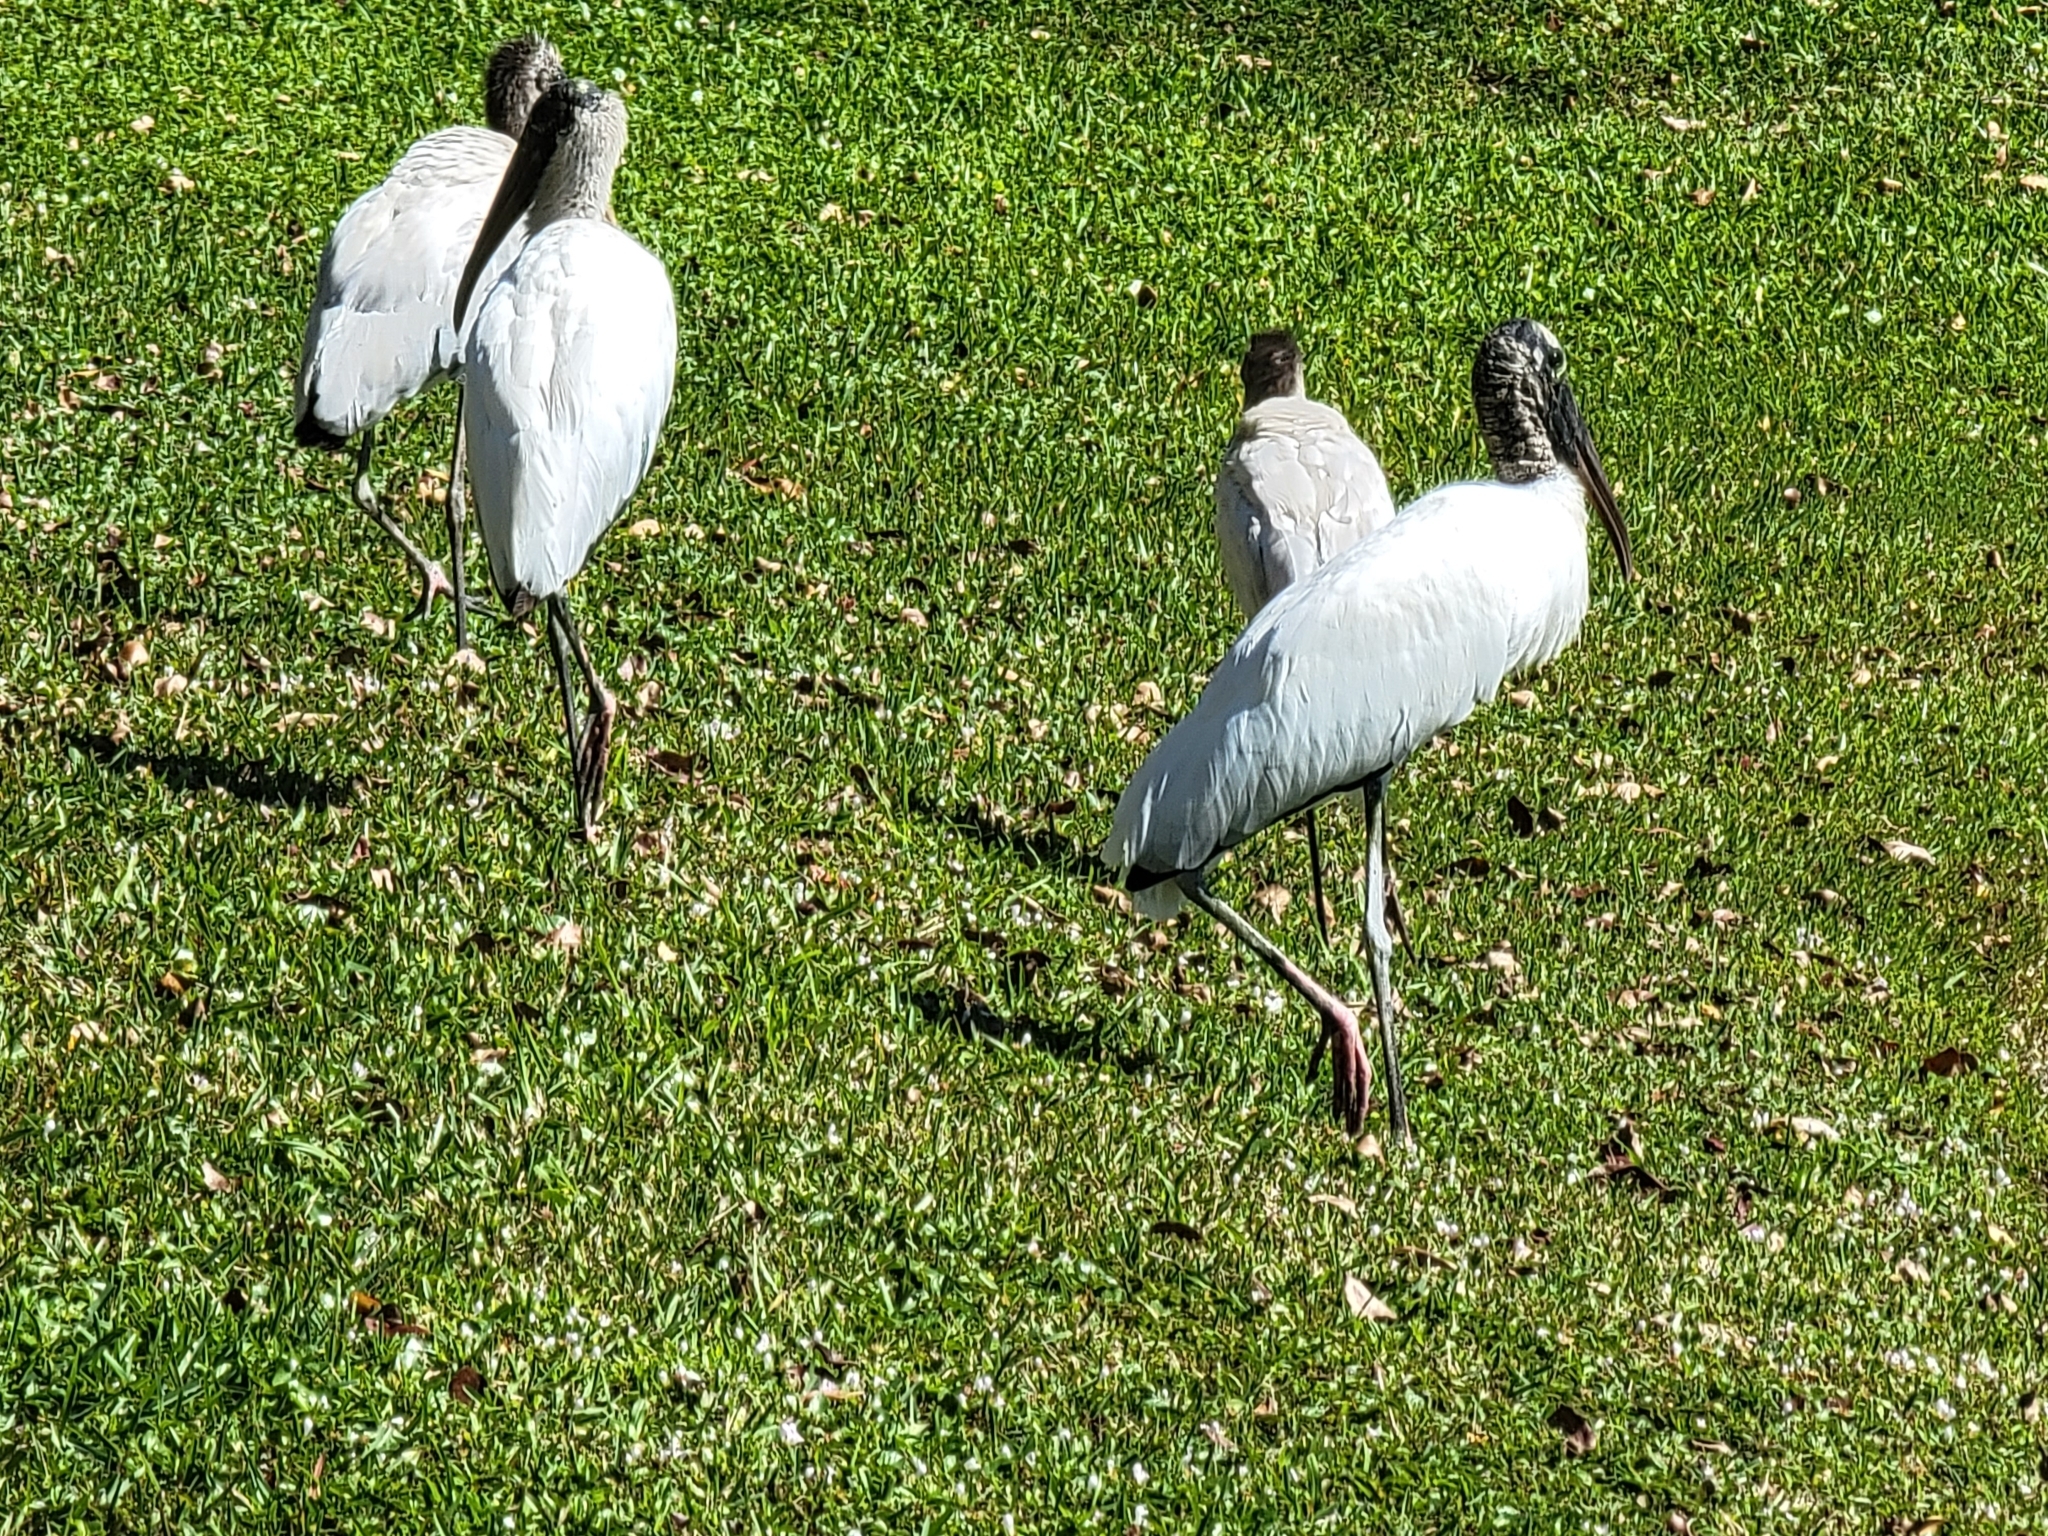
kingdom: Animalia
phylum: Chordata
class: Aves
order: Ciconiiformes
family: Ciconiidae
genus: Mycteria
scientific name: Mycteria americana
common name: Wood stork
